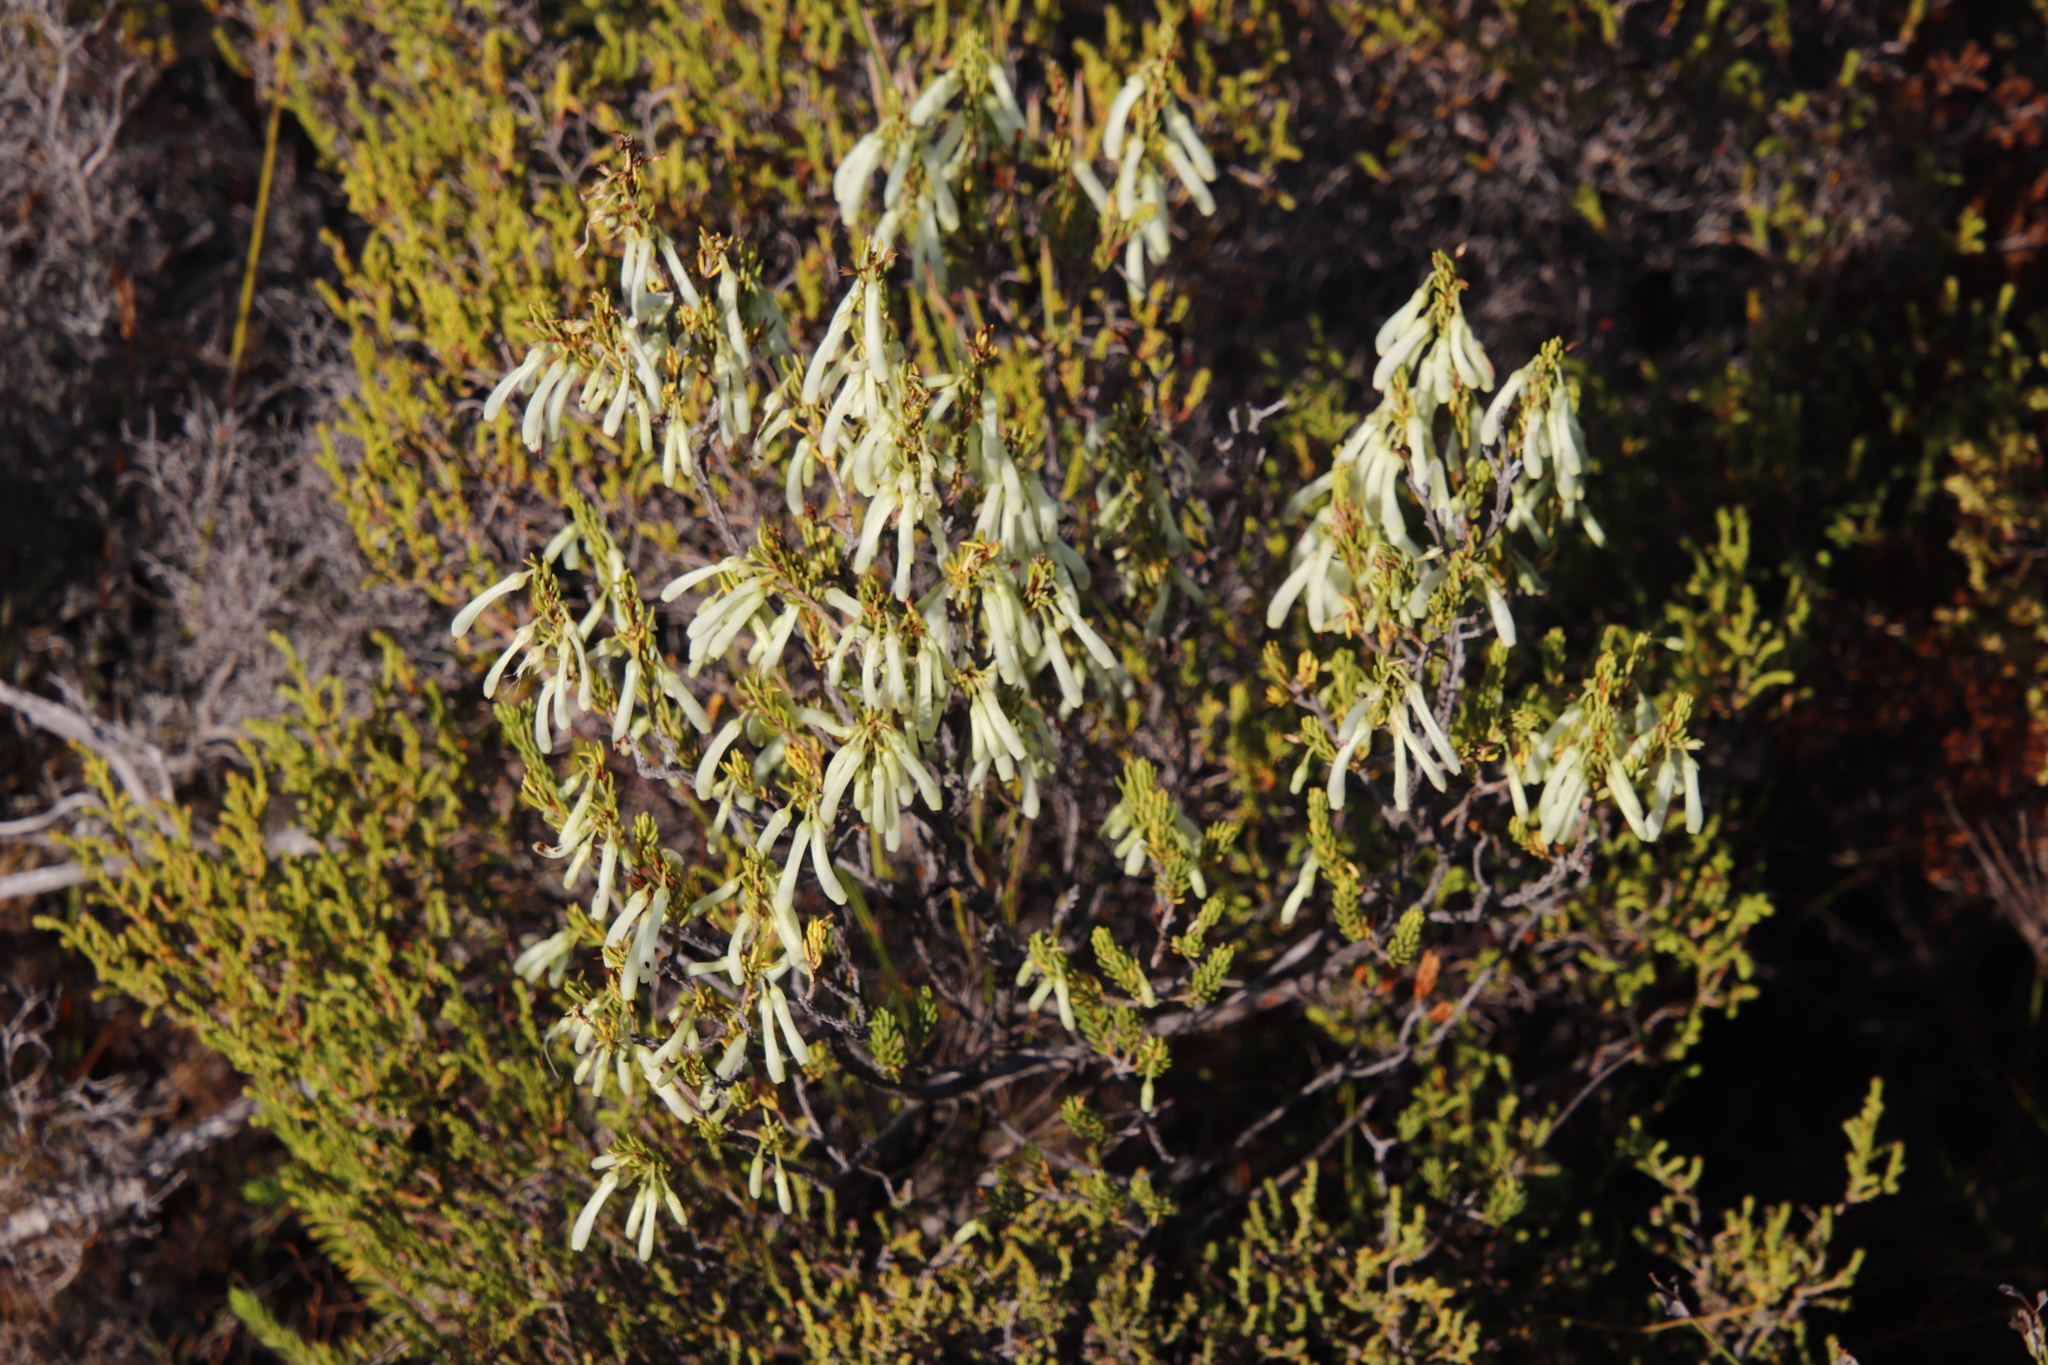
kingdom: Plantae
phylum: Tracheophyta
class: Magnoliopsida
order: Ericales
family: Ericaceae
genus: Erica
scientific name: Erica mammosa
